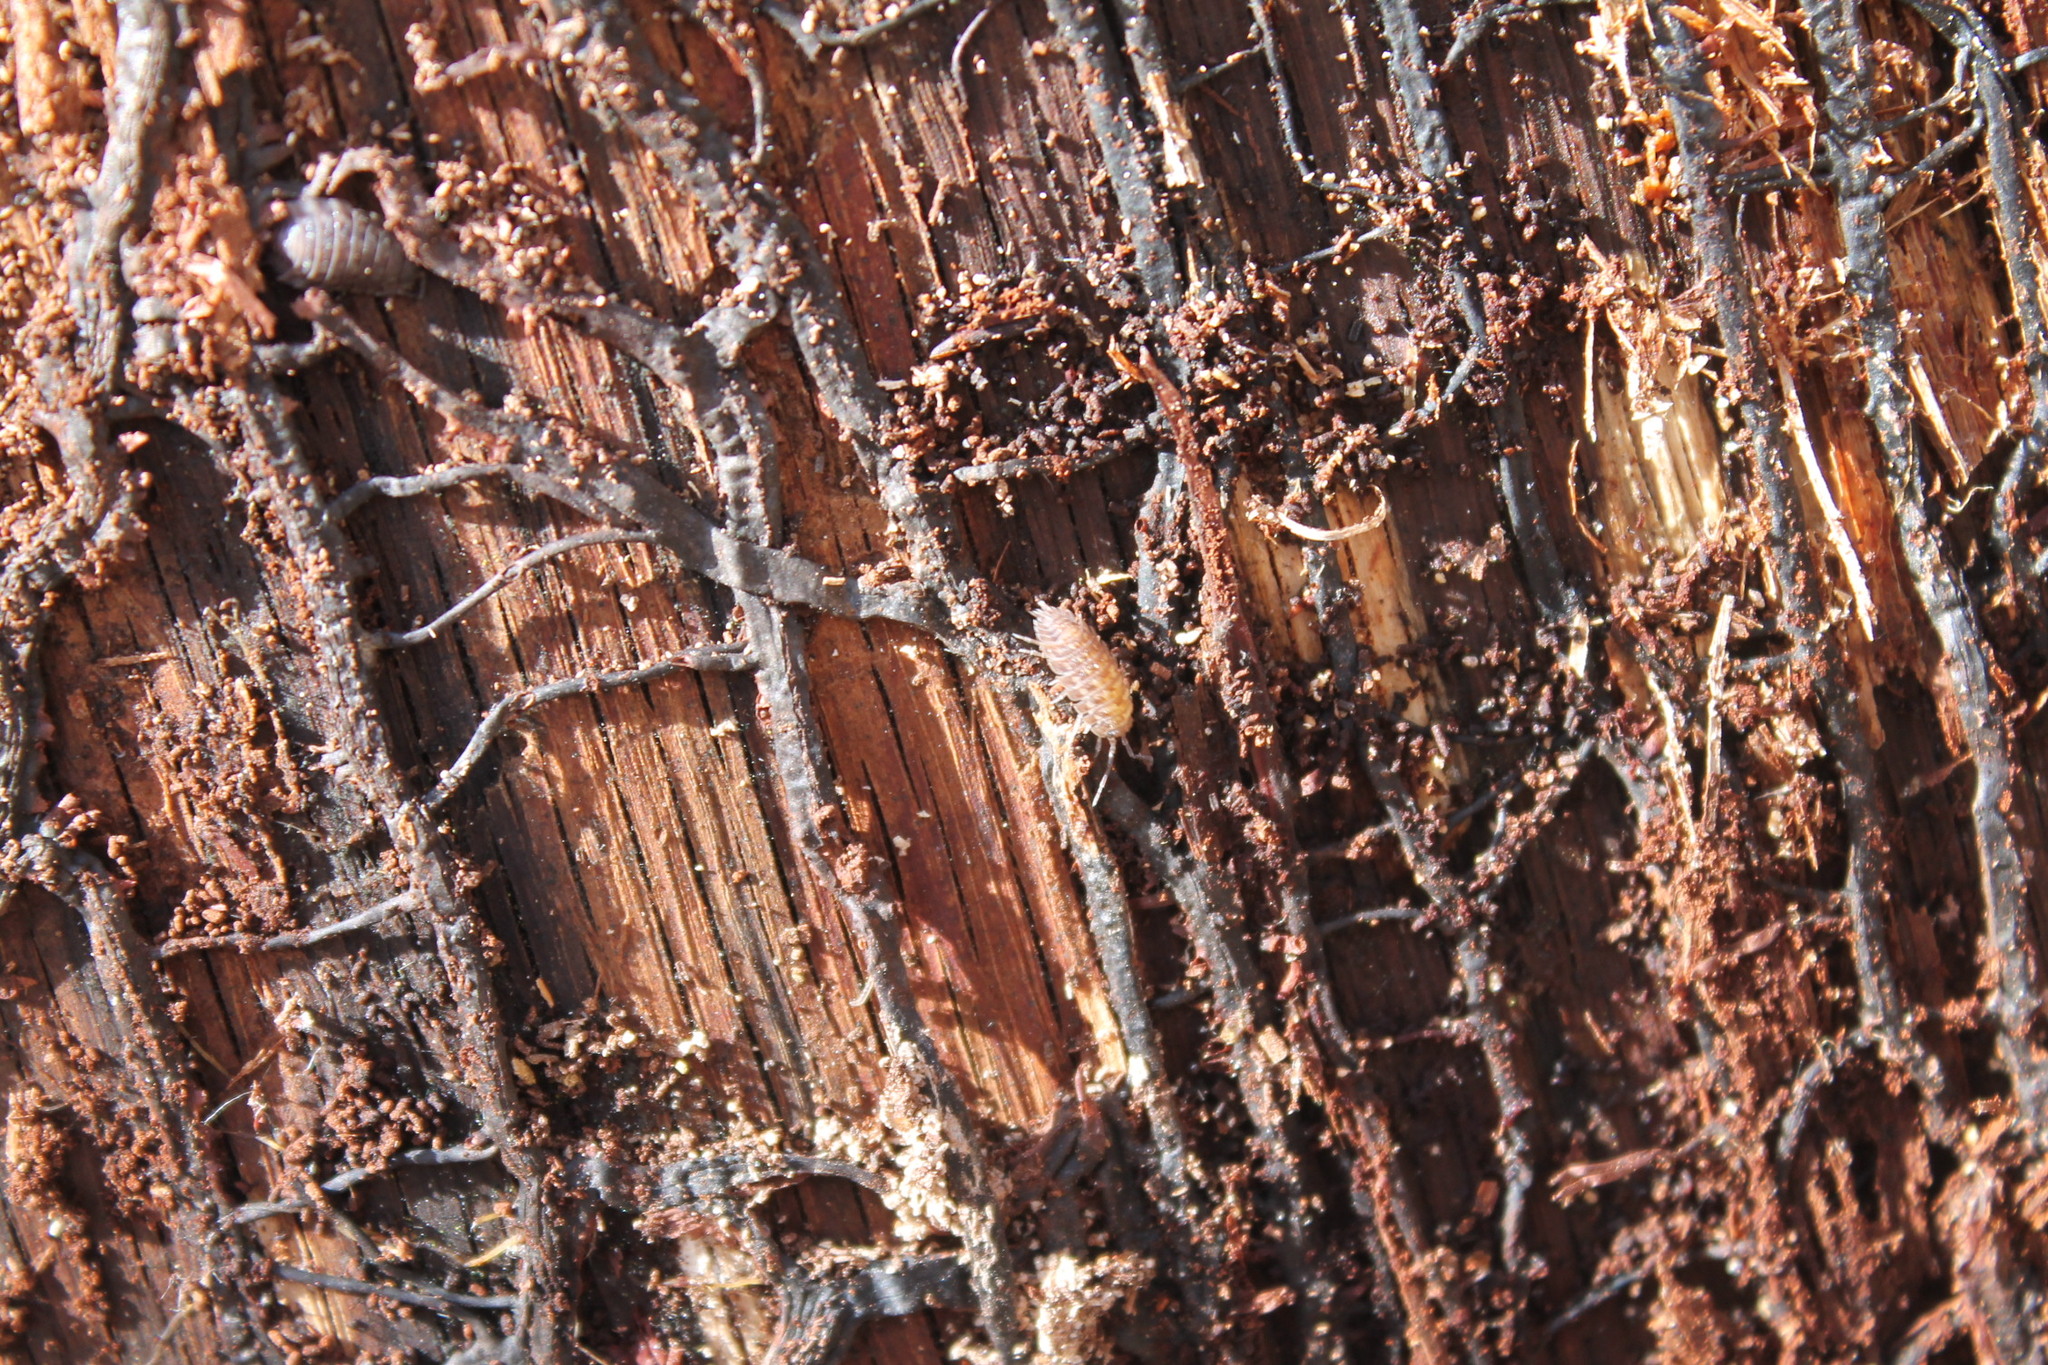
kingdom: Animalia
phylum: Arthropoda
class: Malacostraca
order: Isopoda
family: Trachelipodidae
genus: Trachelipus
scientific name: Trachelipus rathkii
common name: Isopod
